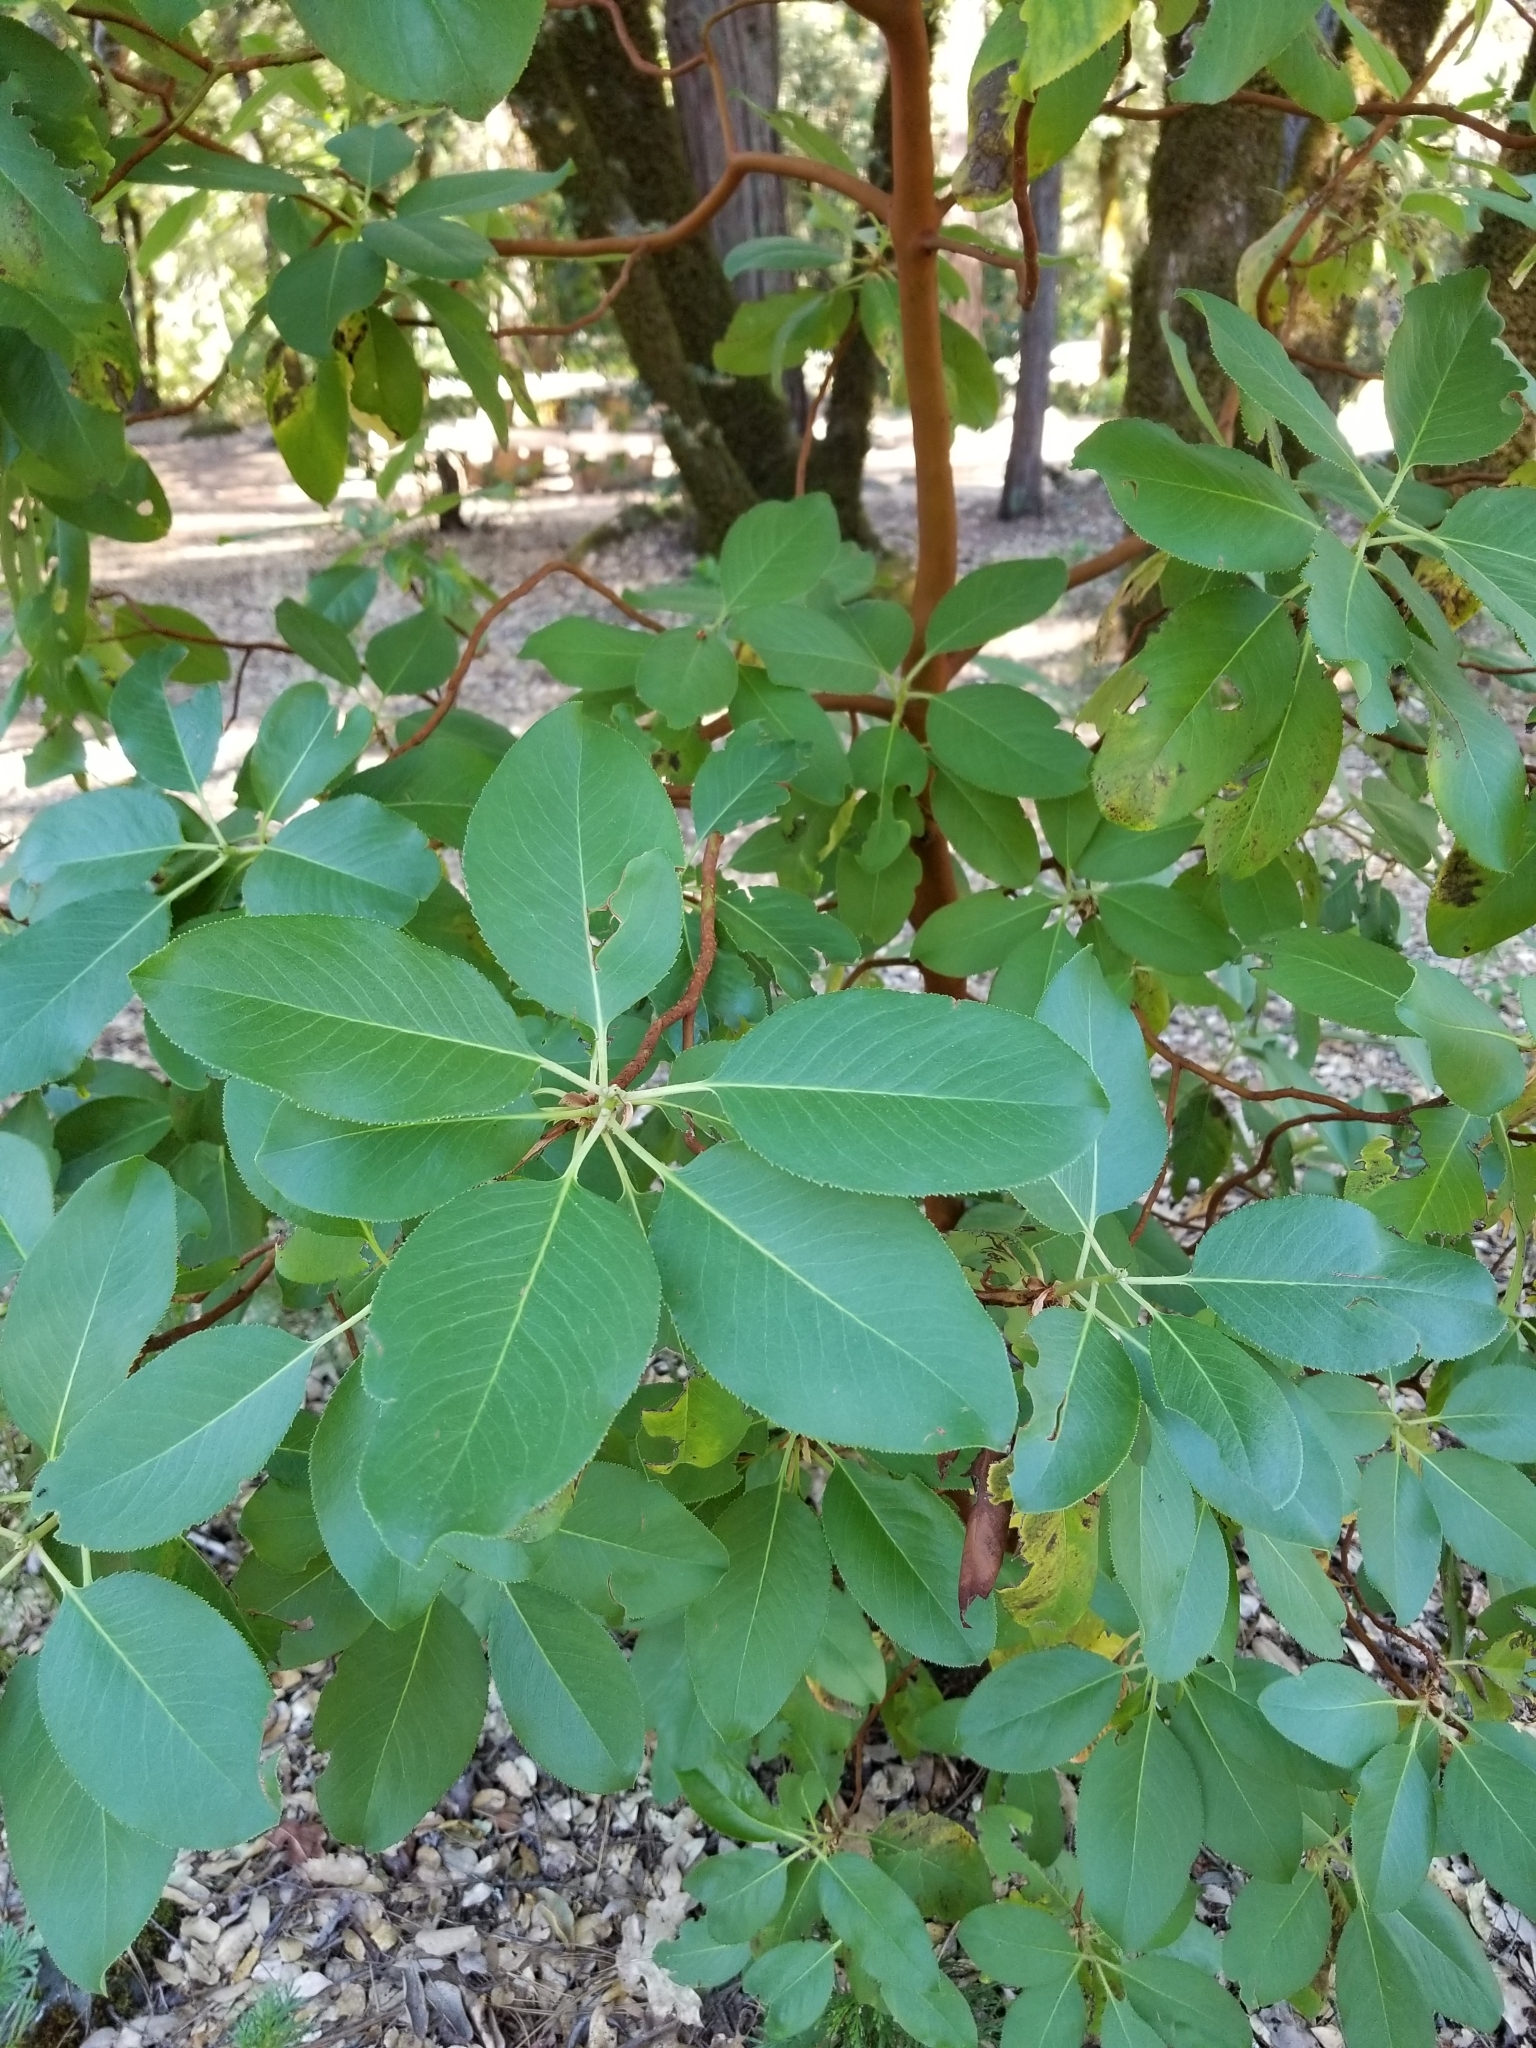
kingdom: Plantae
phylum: Tracheophyta
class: Magnoliopsida
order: Ericales
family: Ericaceae
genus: Arbutus
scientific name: Arbutus menziesii
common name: Pacific madrone
